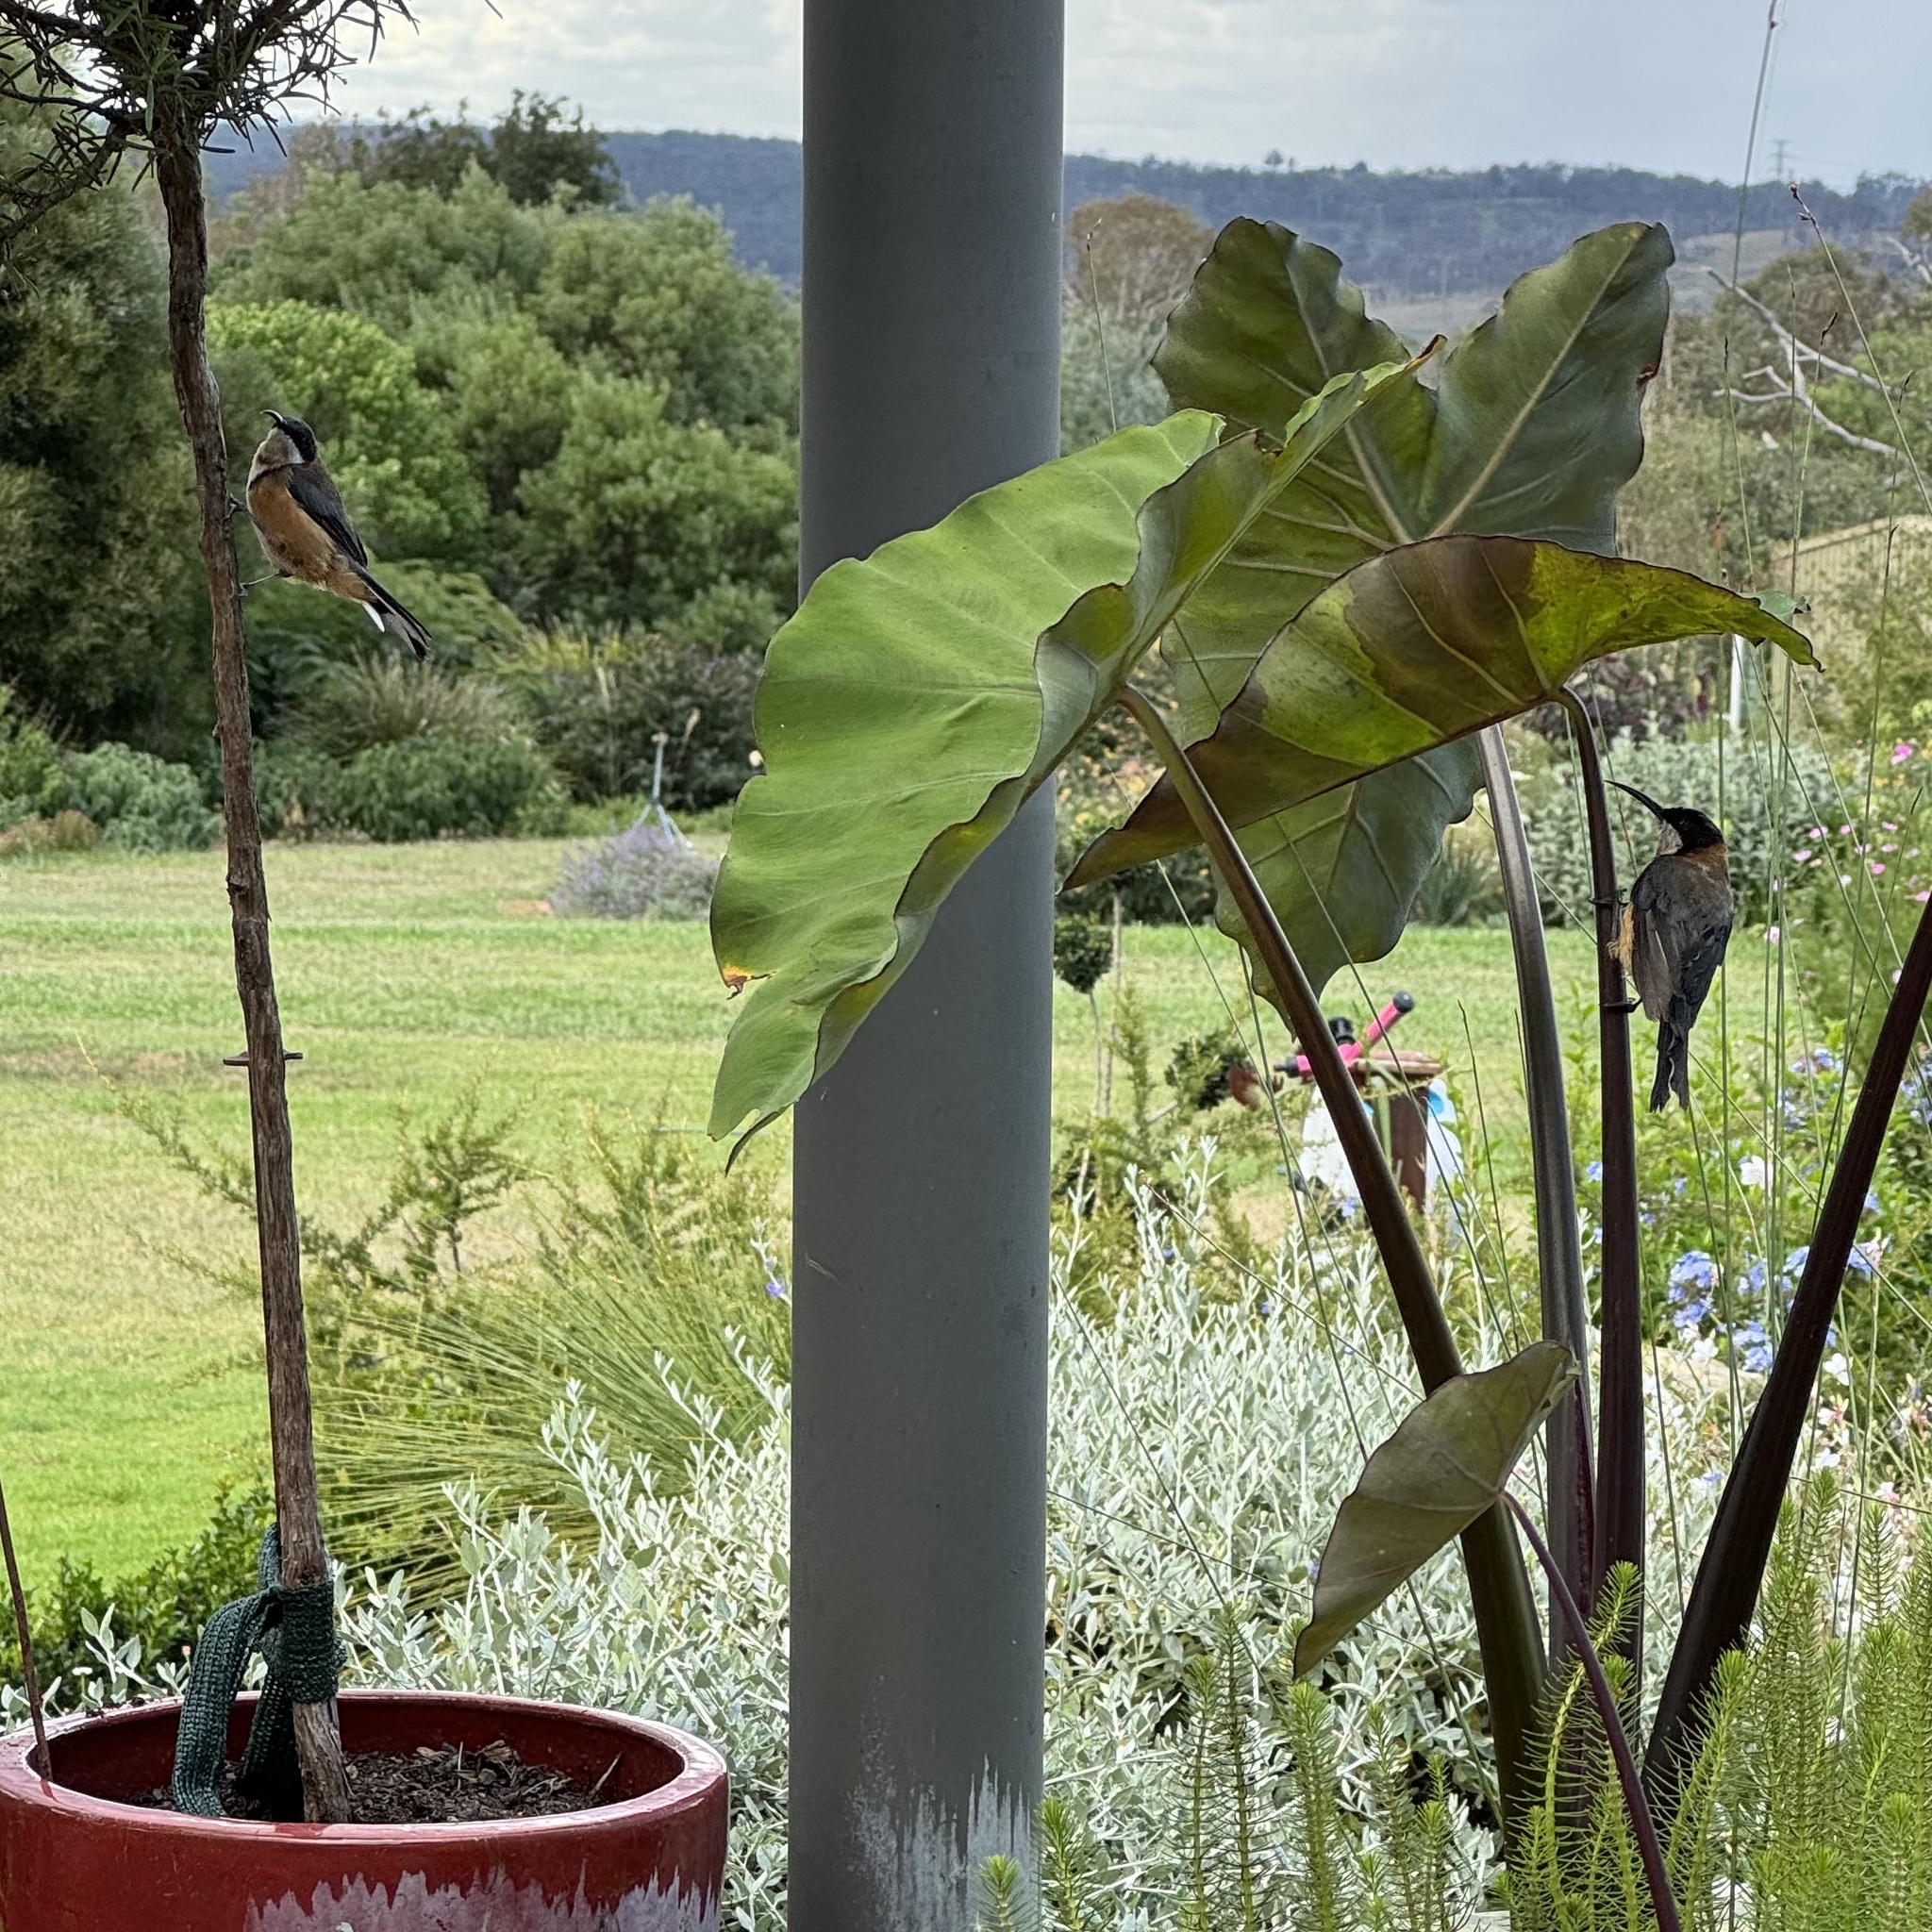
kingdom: Animalia
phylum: Chordata
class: Aves
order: Passeriformes
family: Meliphagidae
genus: Acanthorhynchus
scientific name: Acanthorhynchus tenuirostris
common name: Eastern spinebill
